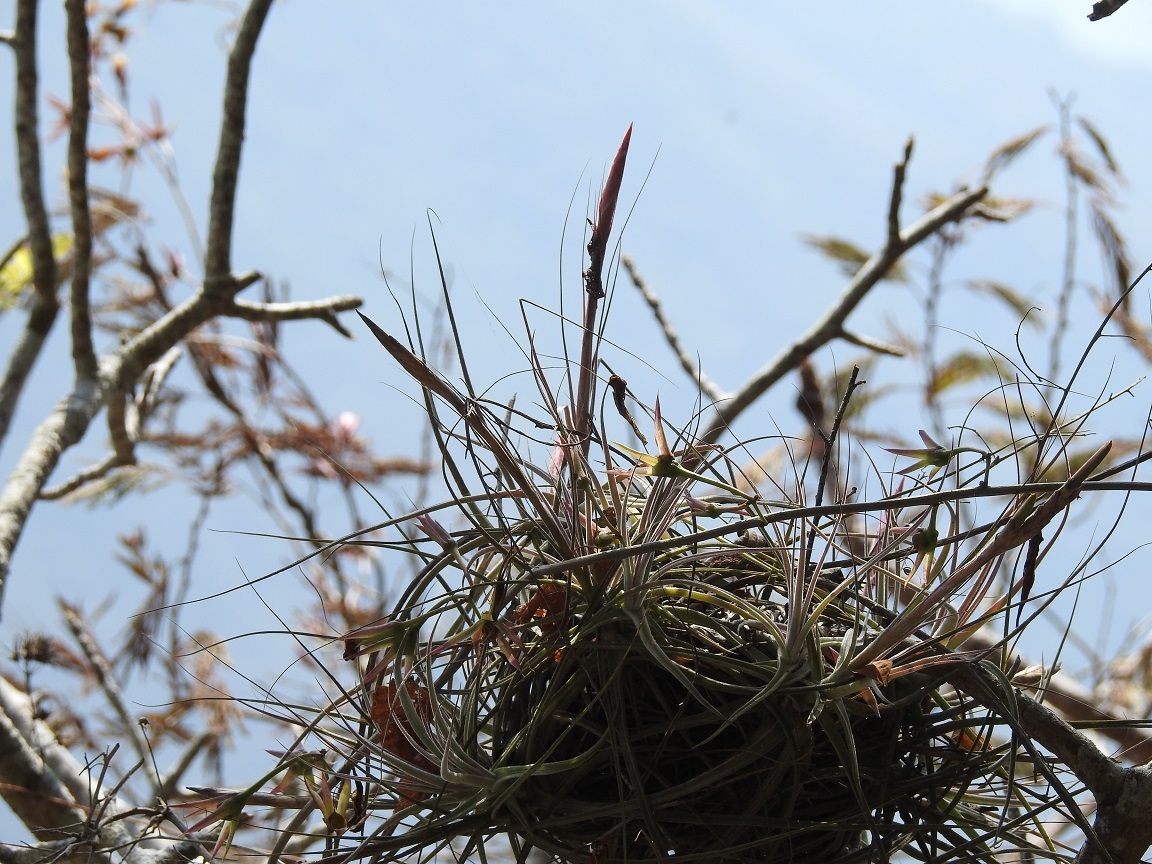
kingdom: Plantae
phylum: Tracheophyta
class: Liliopsida
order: Poales
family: Bromeliaceae
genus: Tillandsia
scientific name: Tillandsia schiedeana
